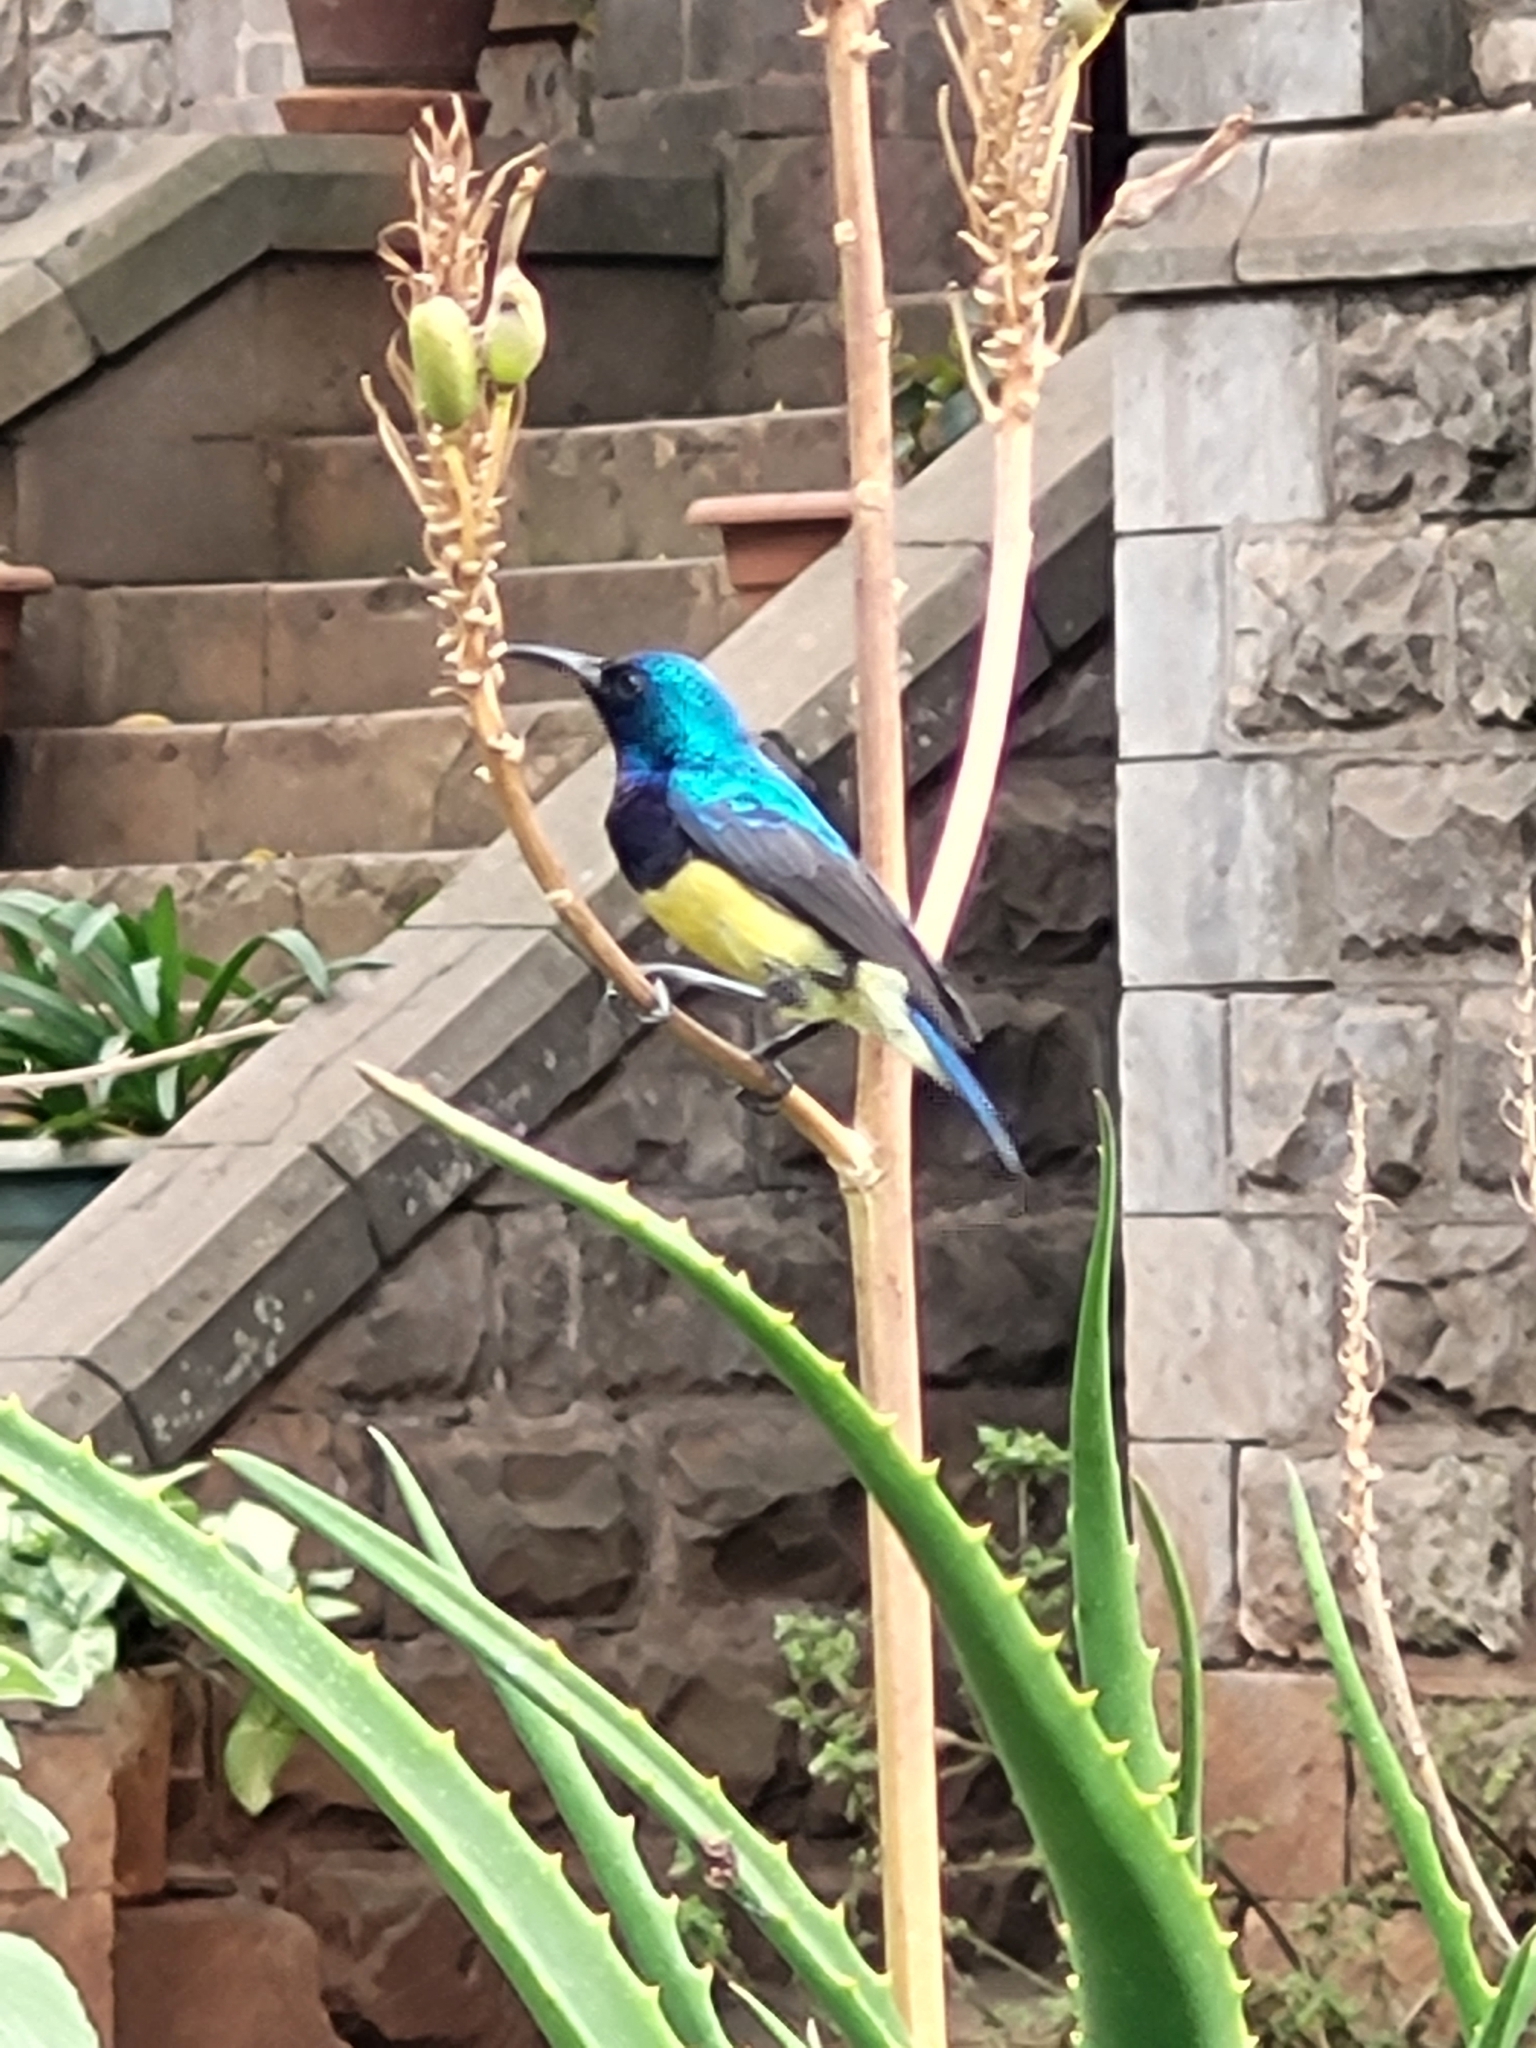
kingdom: Animalia
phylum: Chordata
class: Aves
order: Passeriformes
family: Nectariniidae
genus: Cinnyris
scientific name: Cinnyris venustus
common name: Variable sunbird
